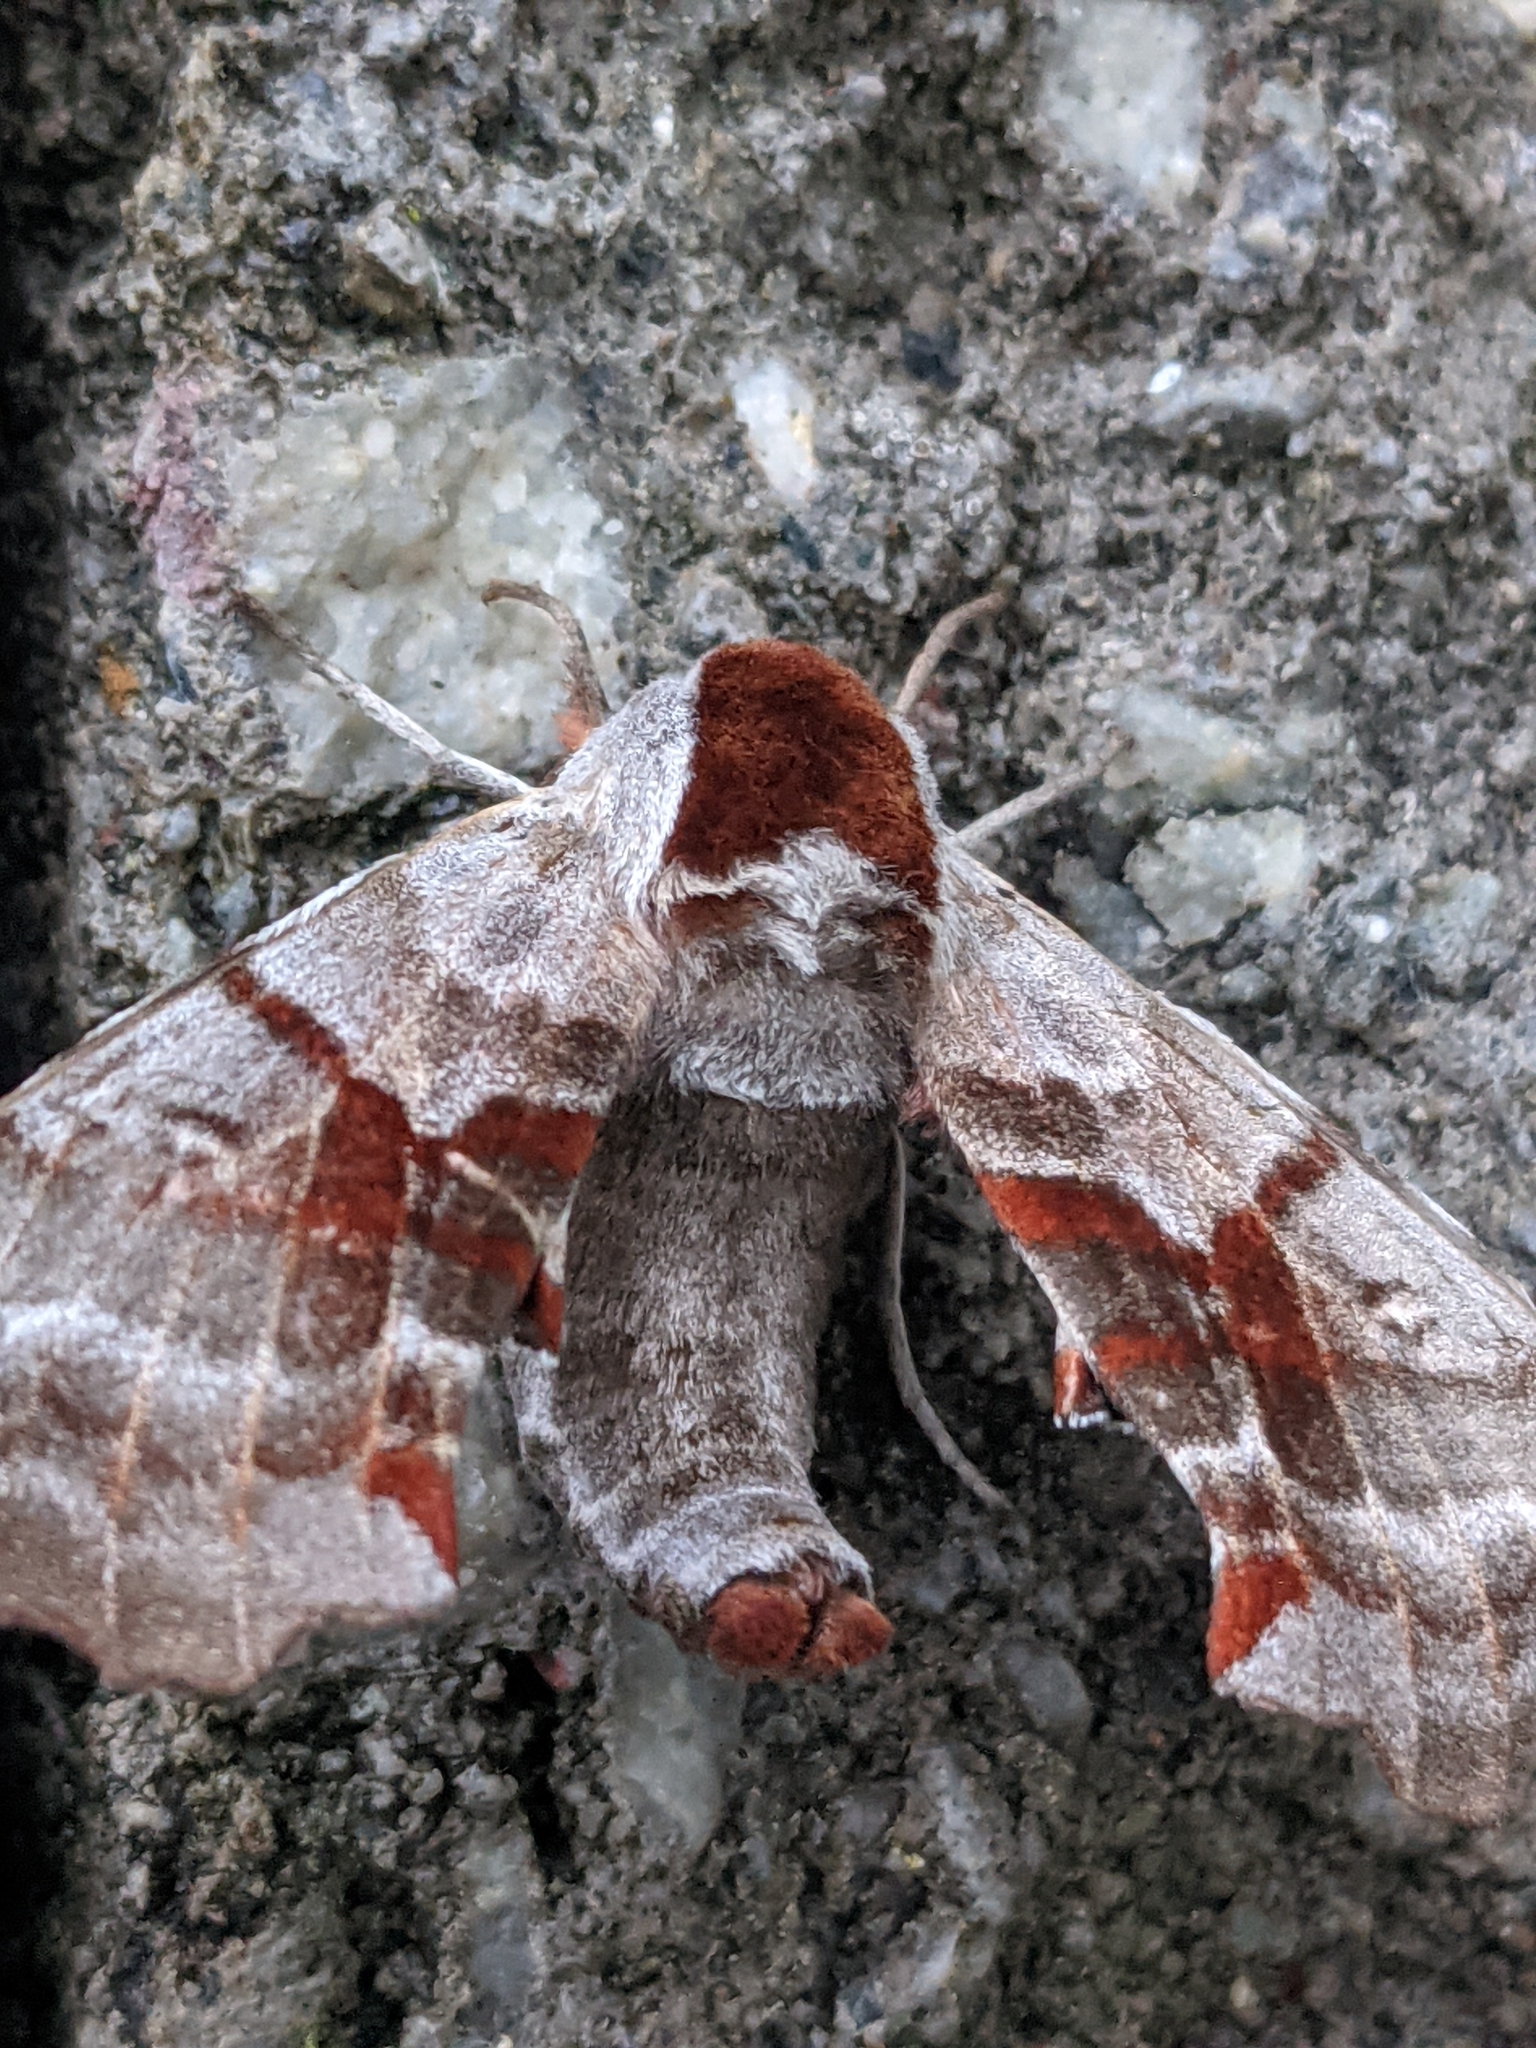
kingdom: Animalia
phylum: Arthropoda
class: Insecta
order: Lepidoptera
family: Sphingidae
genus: Smerinthus
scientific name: Smerinthus jamaicensis
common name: Twin spotted sphinx
